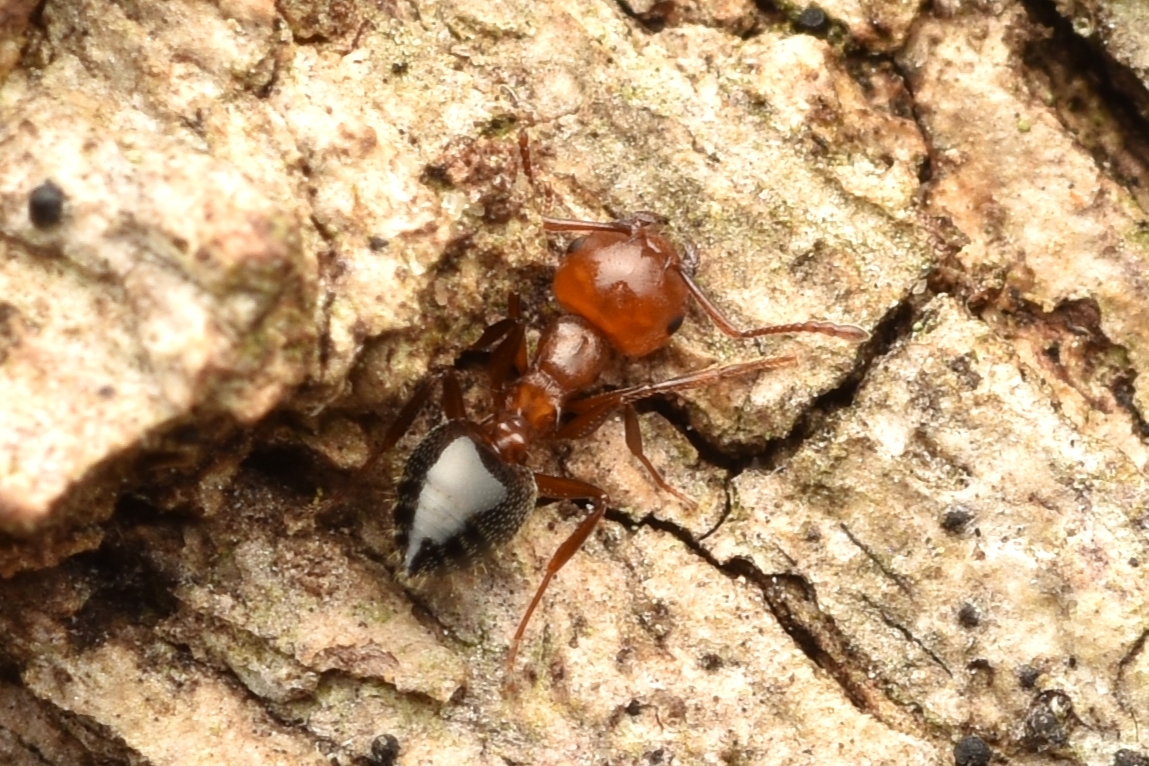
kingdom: Animalia
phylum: Arthropoda
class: Insecta
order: Hymenoptera
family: Formicidae
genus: Crematogaster
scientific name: Crematogaster laeviuscula
